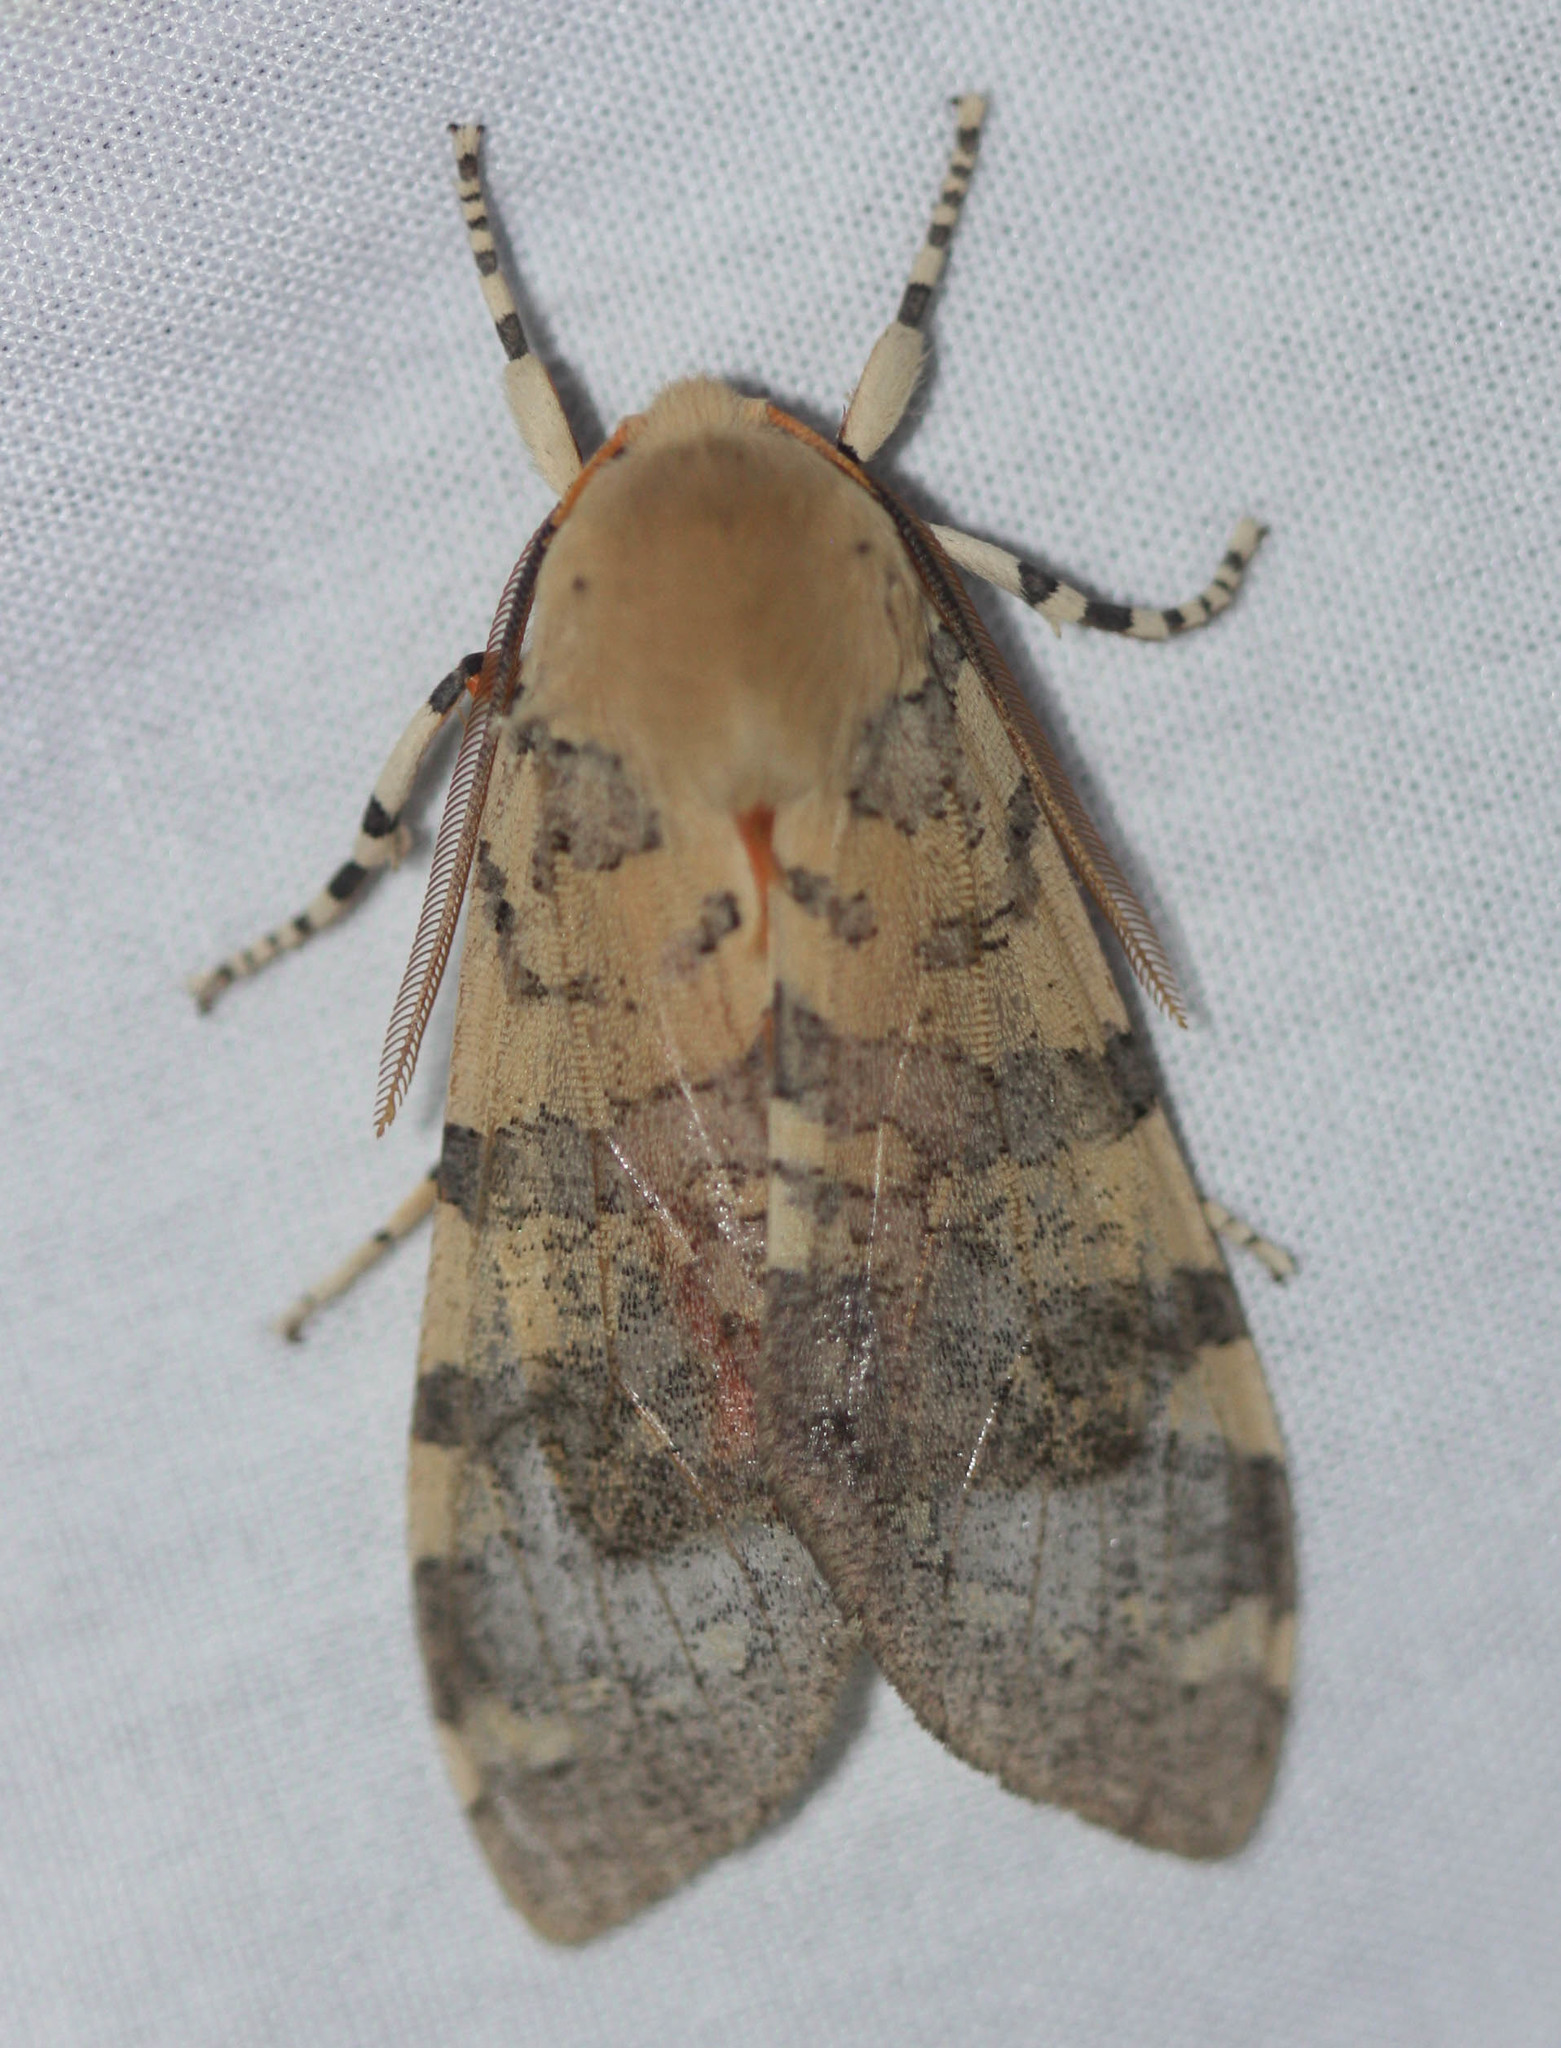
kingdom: Animalia
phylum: Arthropoda
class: Insecta
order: Lepidoptera
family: Erebidae
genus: Hemihyalea
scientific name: Hemihyalea edwardsii
